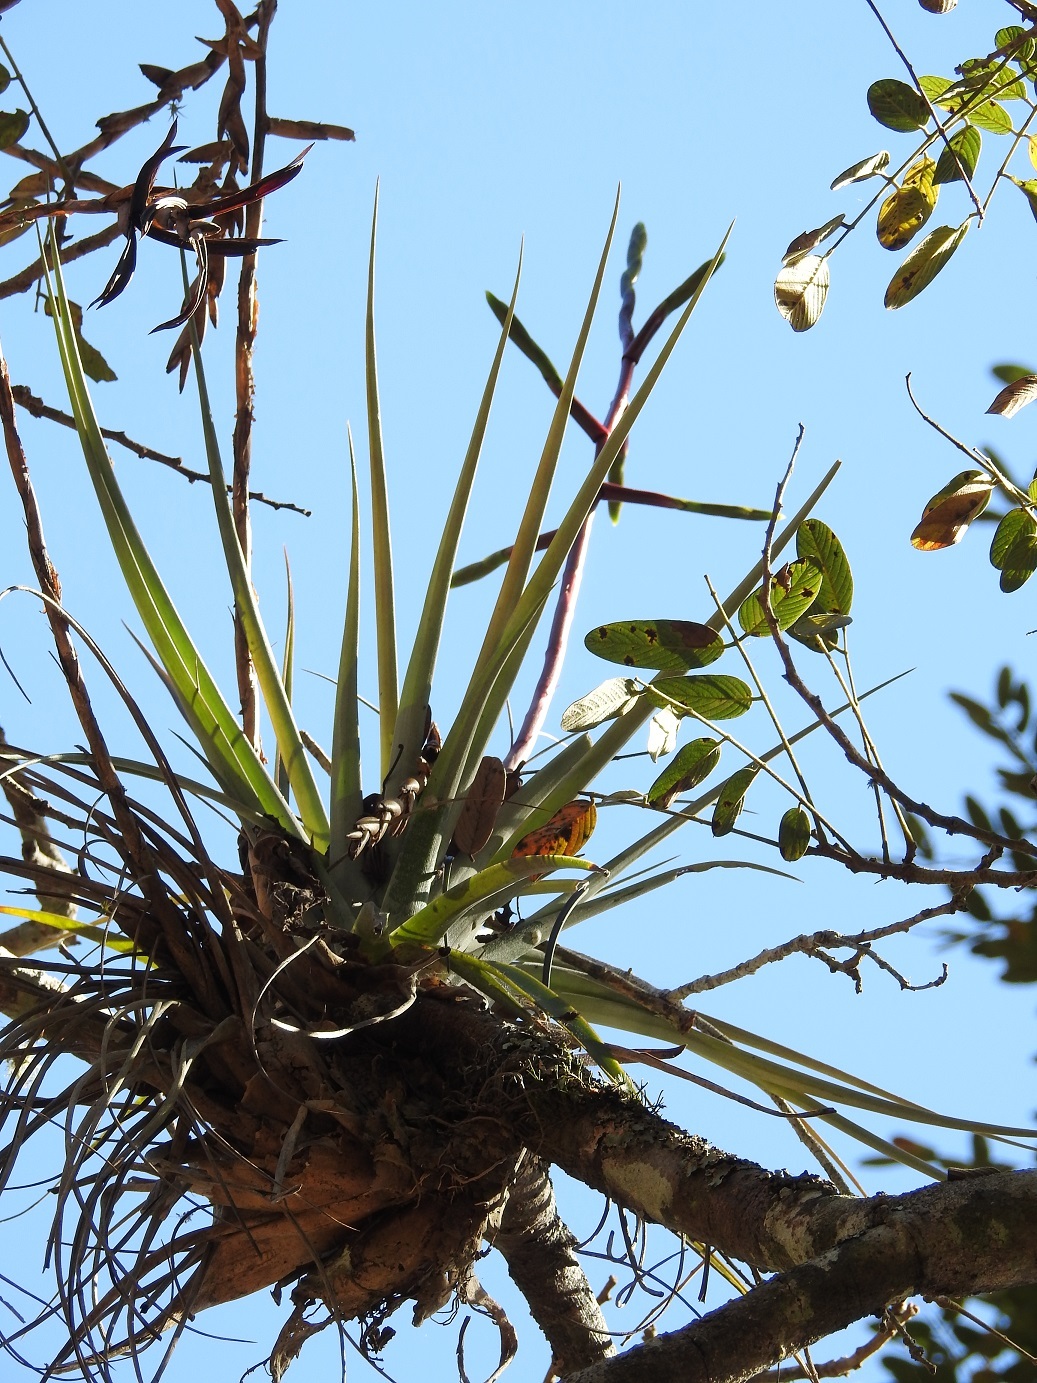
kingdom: Plantae
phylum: Tracheophyta
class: Liliopsida
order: Poales
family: Bromeliaceae
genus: Tillandsia
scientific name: Tillandsia makoyana
